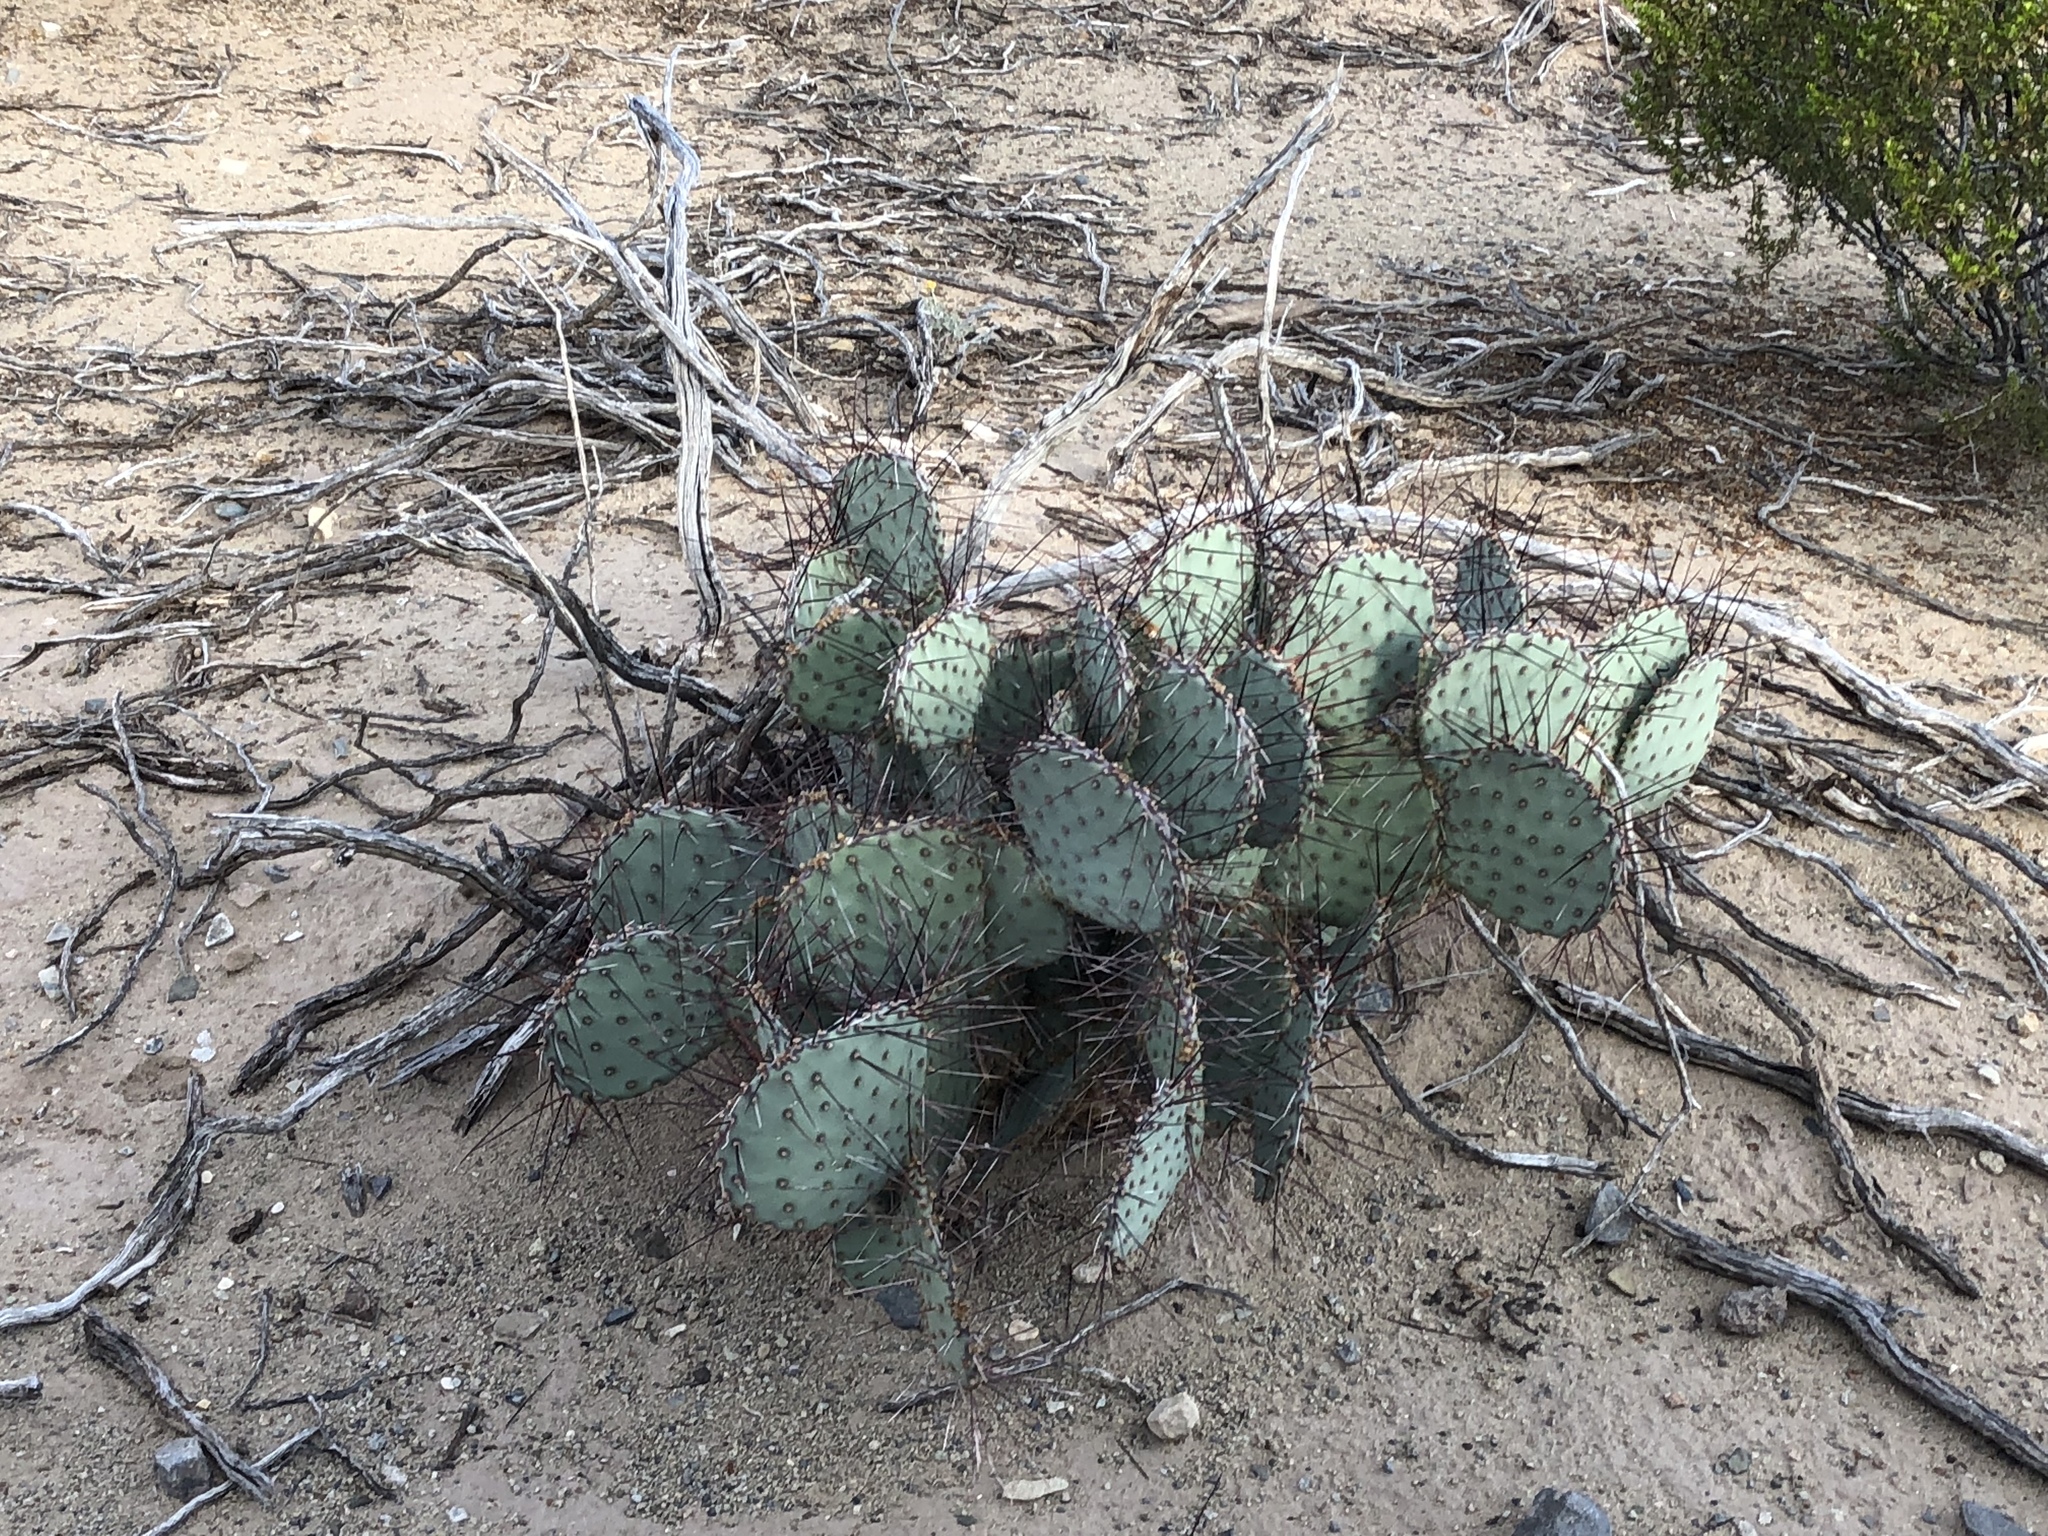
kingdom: Plantae
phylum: Tracheophyta
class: Magnoliopsida
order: Caryophyllales
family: Cactaceae
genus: Opuntia
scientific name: Opuntia macrocentra
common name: Purple prickly-pear
